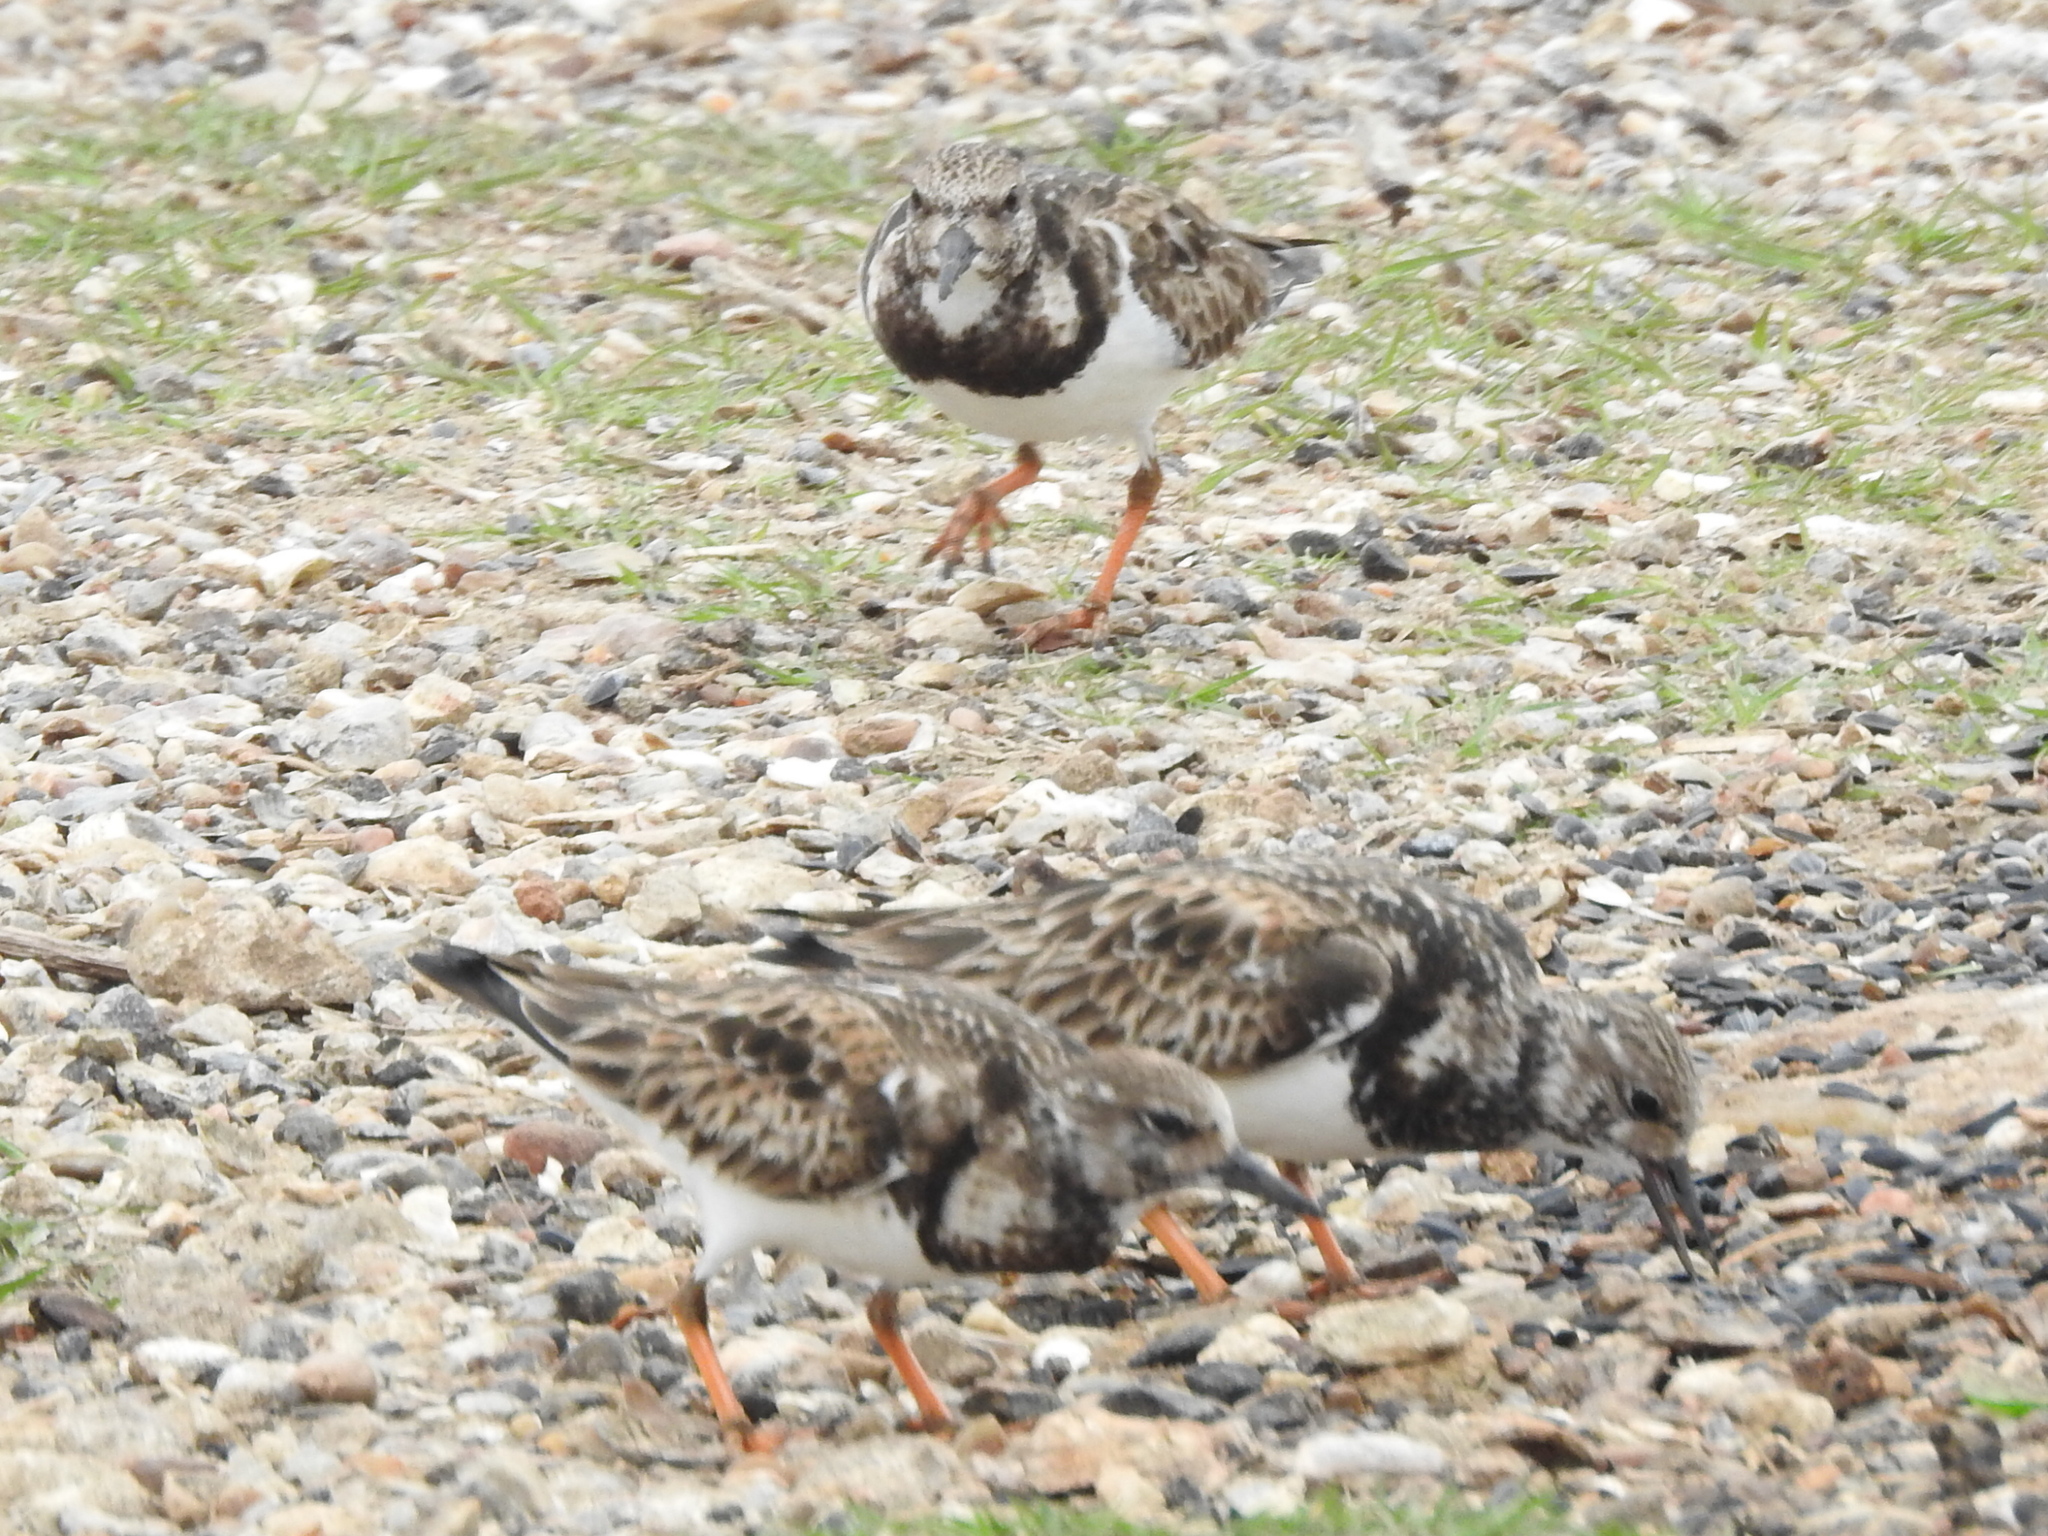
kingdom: Animalia
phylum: Chordata
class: Aves
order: Charadriiformes
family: Scolopacidae
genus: Arenaria
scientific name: Arenaria interpres
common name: Ruddy turnstone
